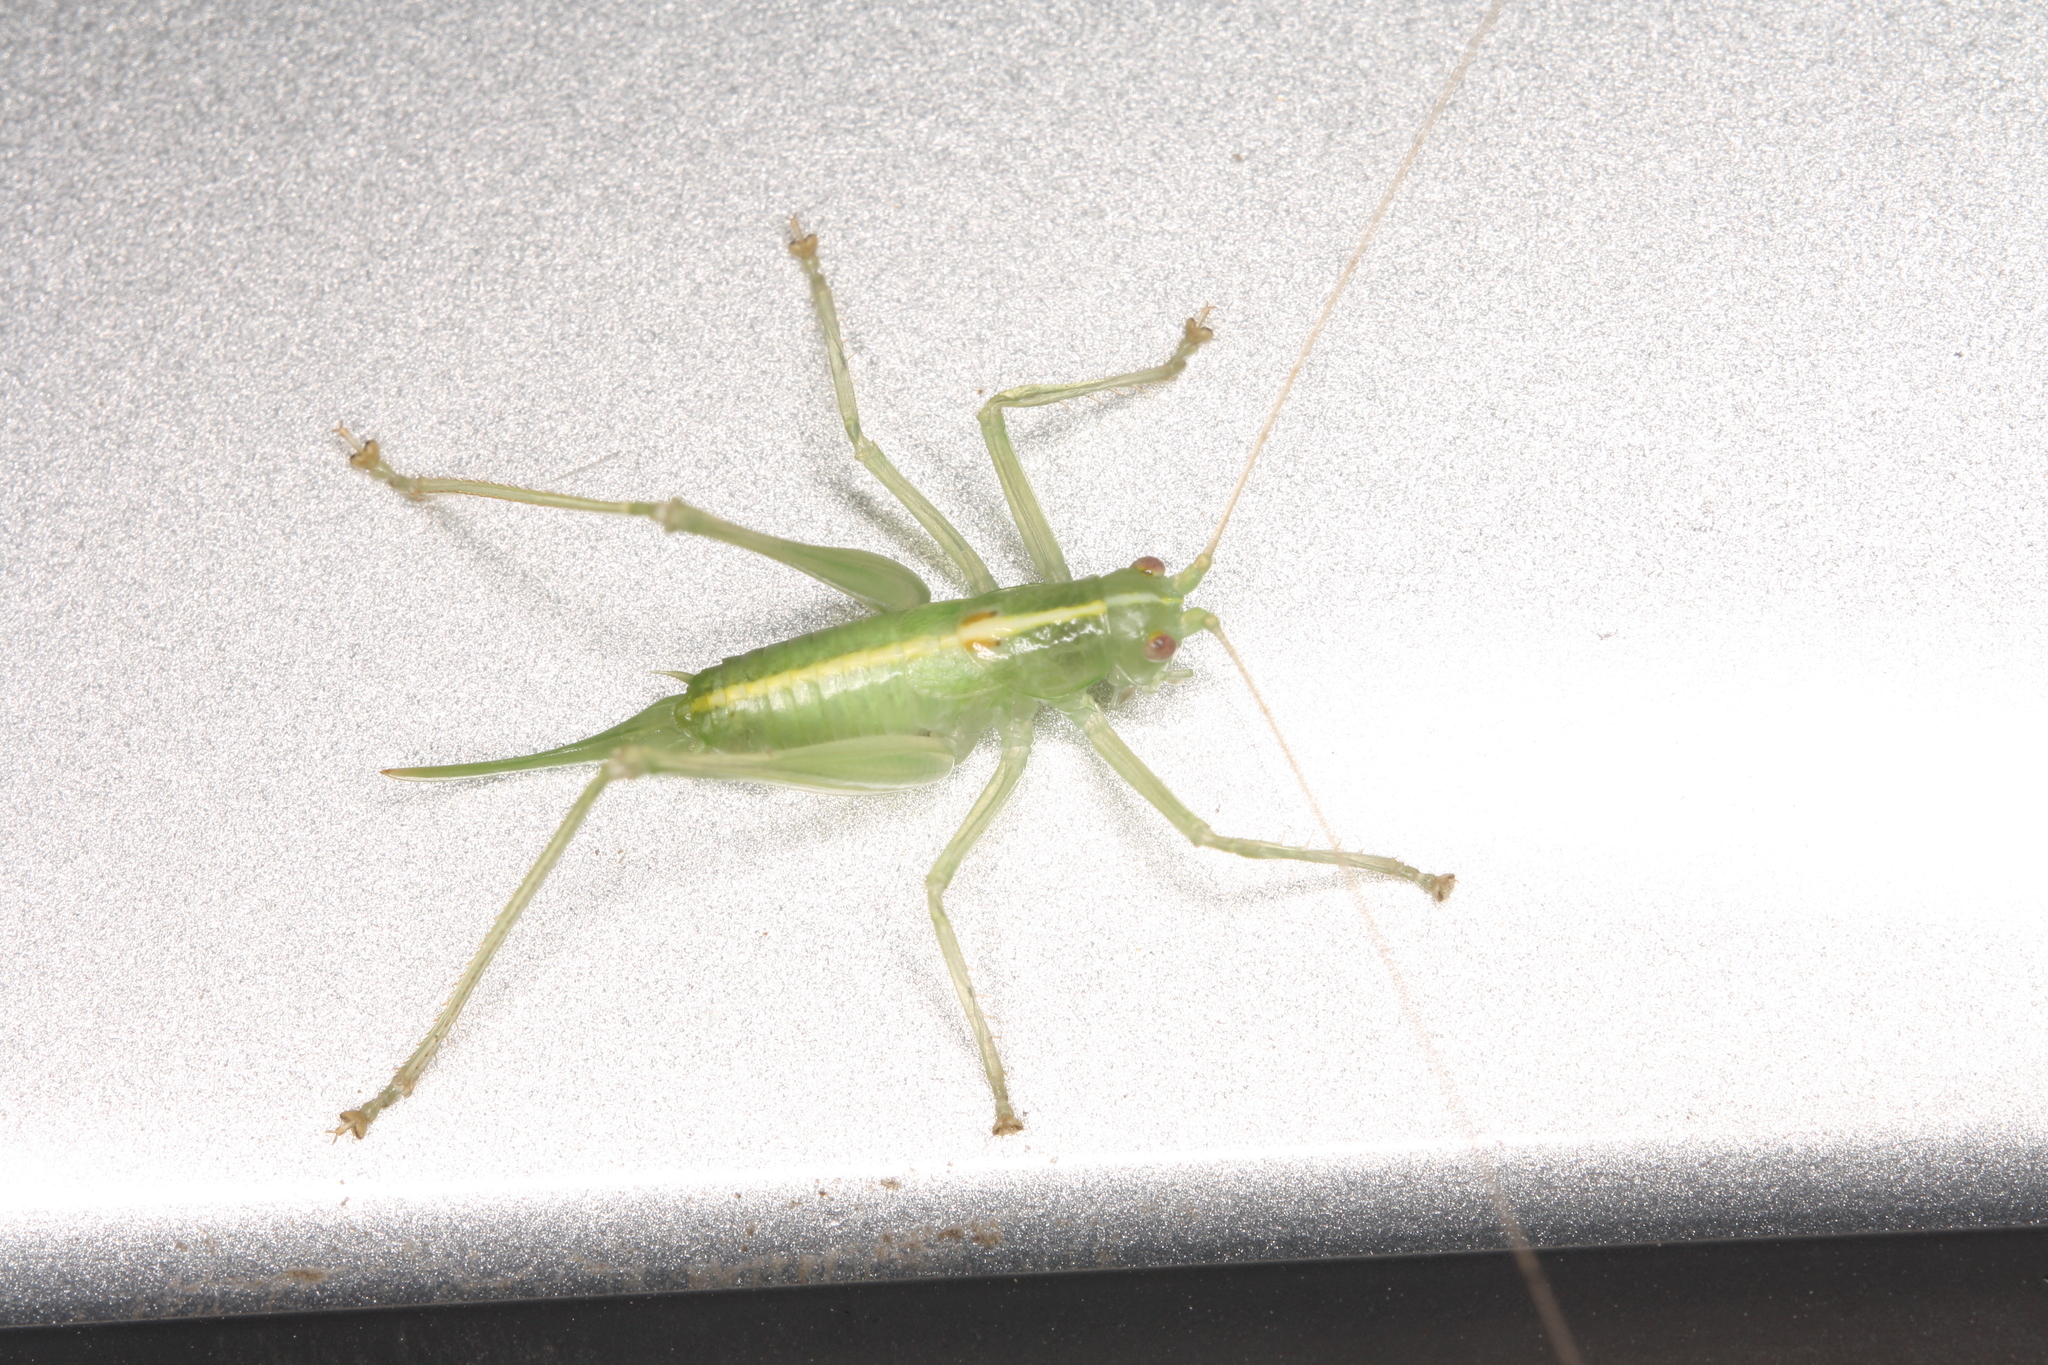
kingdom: Animalia
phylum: Arthropoda
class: Insecta
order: Orthoptera
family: Tettigoniidae
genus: Meconema
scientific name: Meconema meridionale
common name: Southern oak bush-cricket
